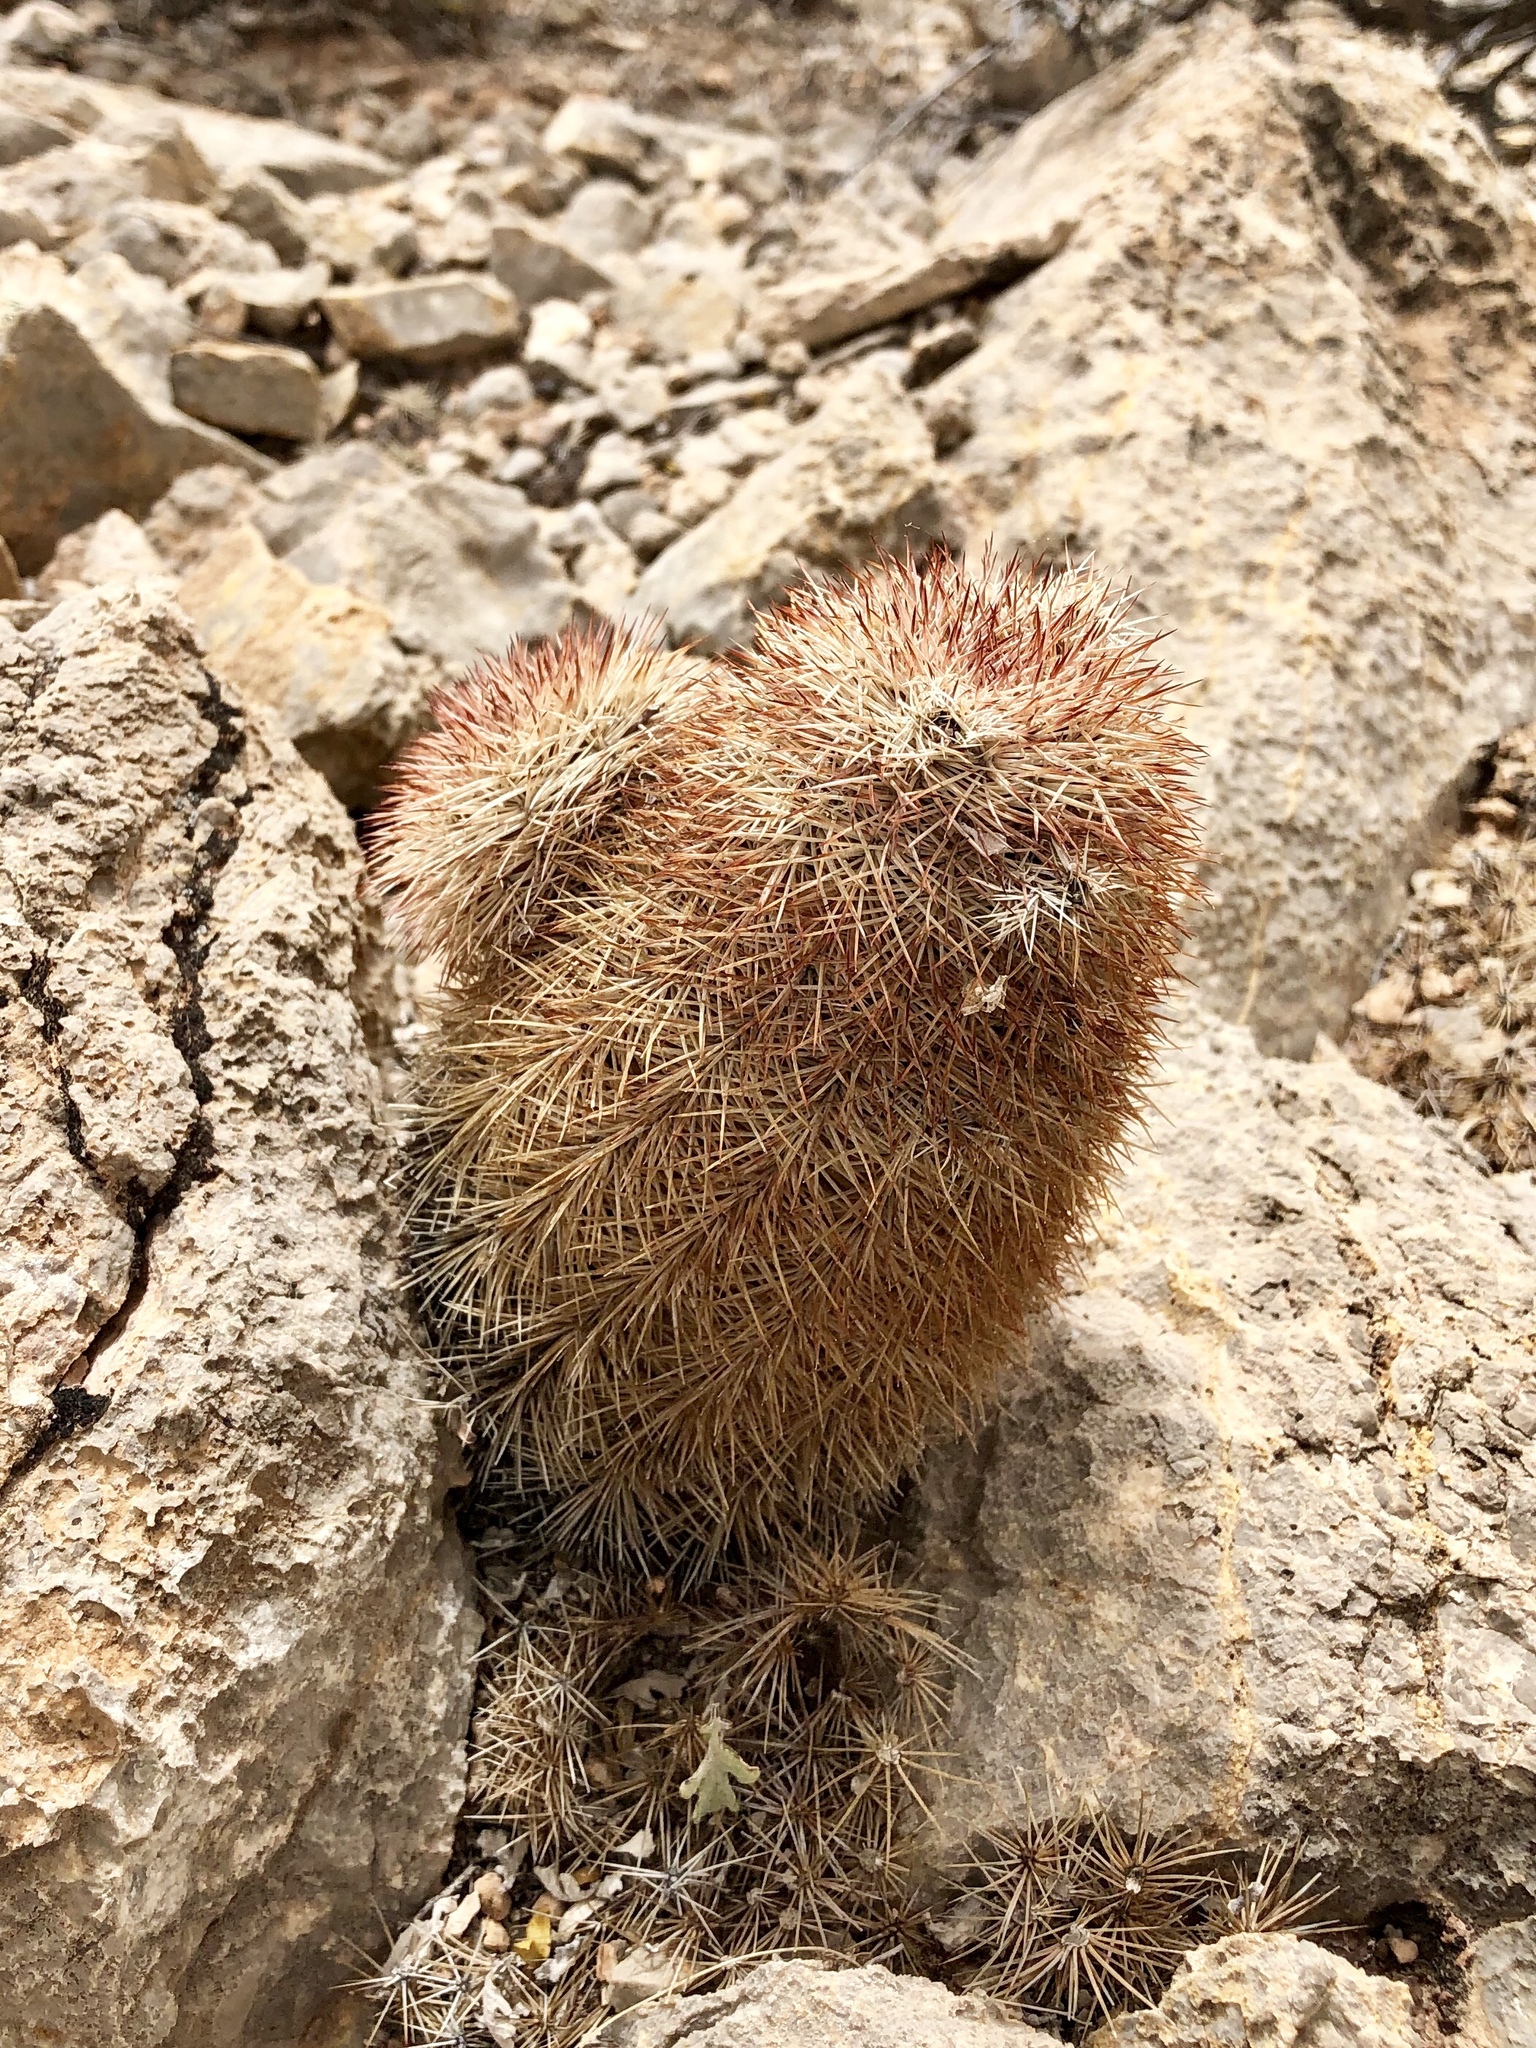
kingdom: Plantae
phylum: Tracheophyta
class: Magnoliopsida
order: Caryophyllales
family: Cactaceae
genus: Echinocereus
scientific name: Echinocereus dasyacanthus
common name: Spiny hedgehog cactus
